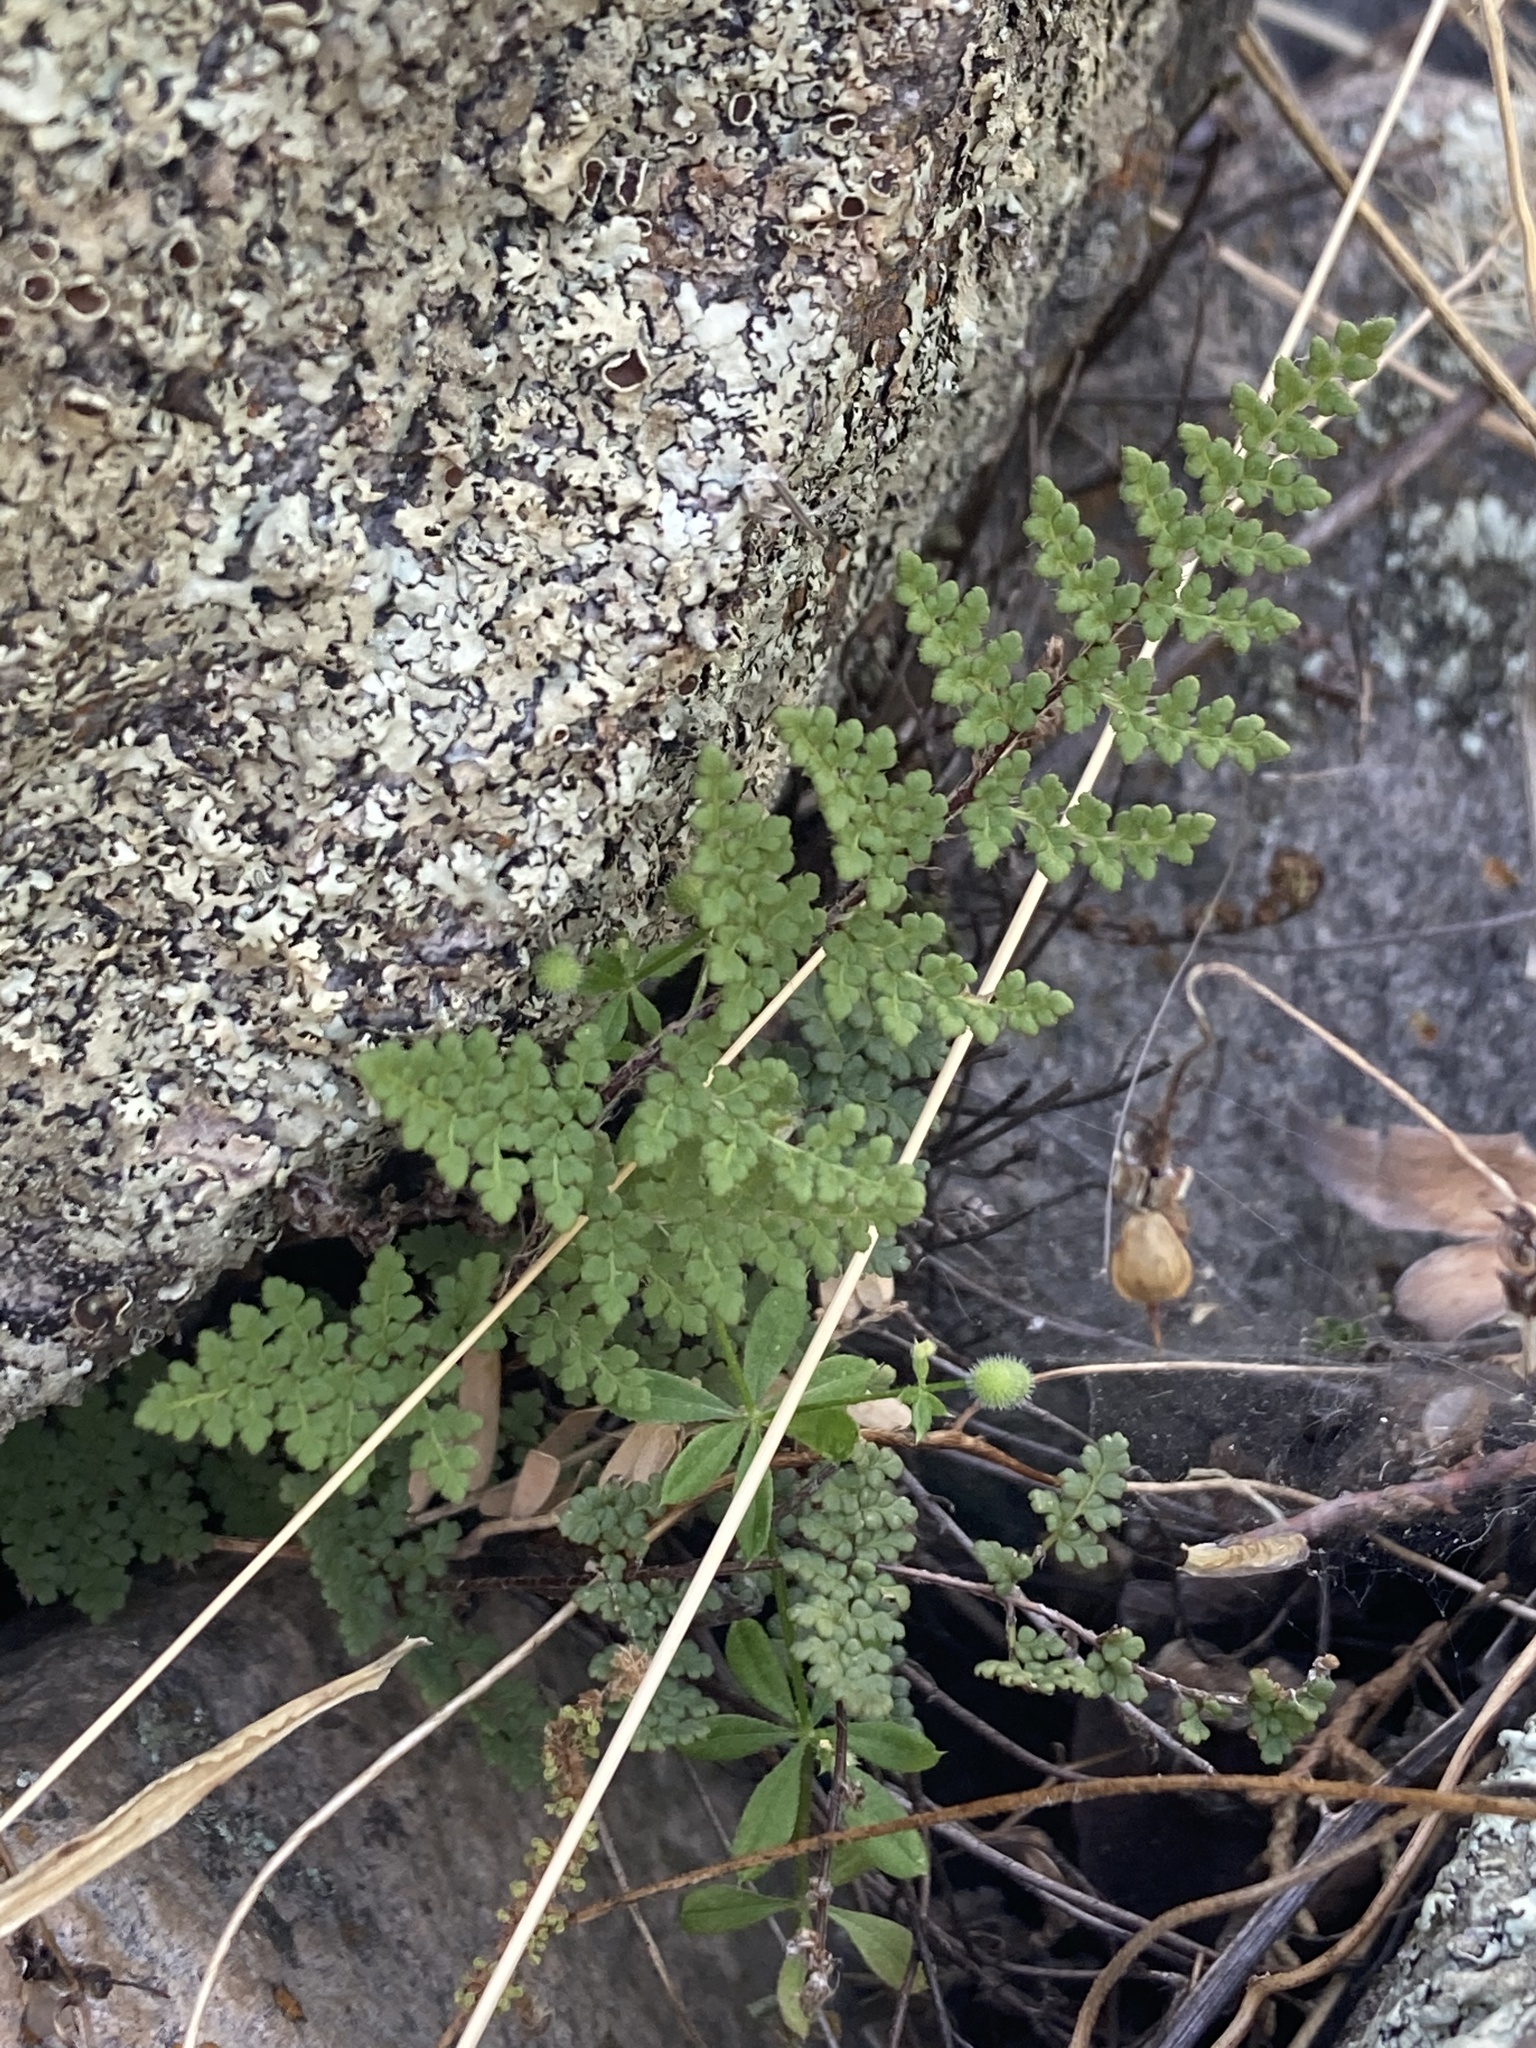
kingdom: Plantae
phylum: Tracheophyta
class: Polypodiopsida
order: Polypodiales
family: Pteridaceae
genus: Myriopteris
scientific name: Myriopteris fendleri
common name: Fendler's lip fern
